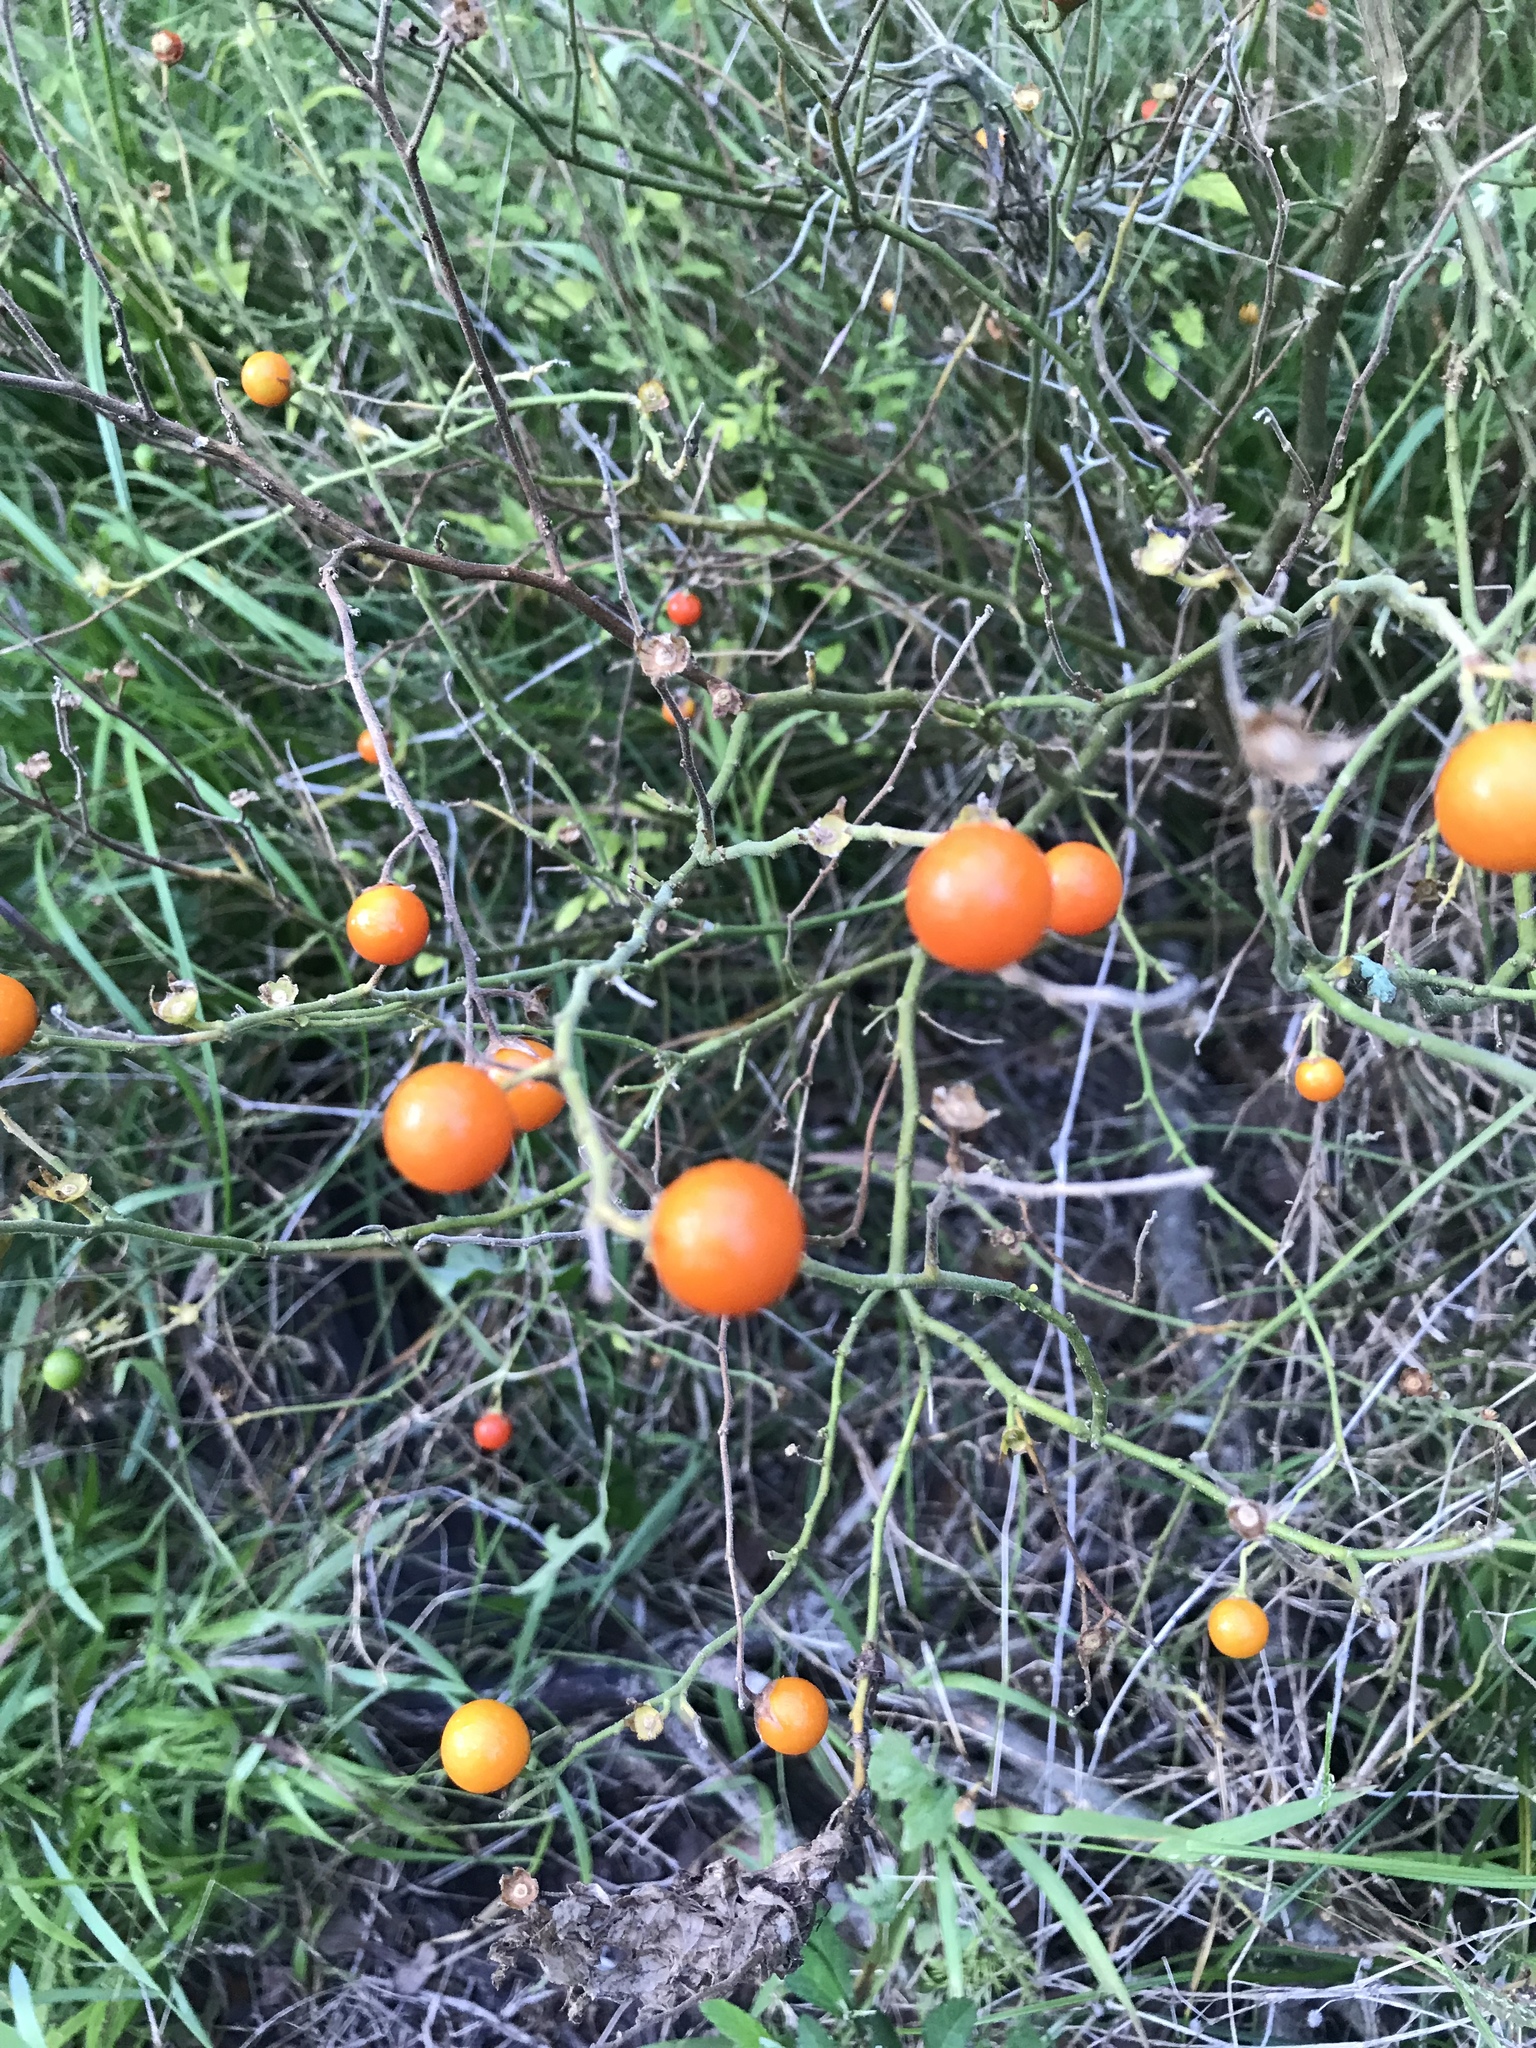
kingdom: Plantae
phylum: Tracheophyta
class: Magnoliopsida
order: Solanales
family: Solanaceae
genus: Solanum
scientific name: Solanum pseudocapsicum
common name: Jerusalem cherry
